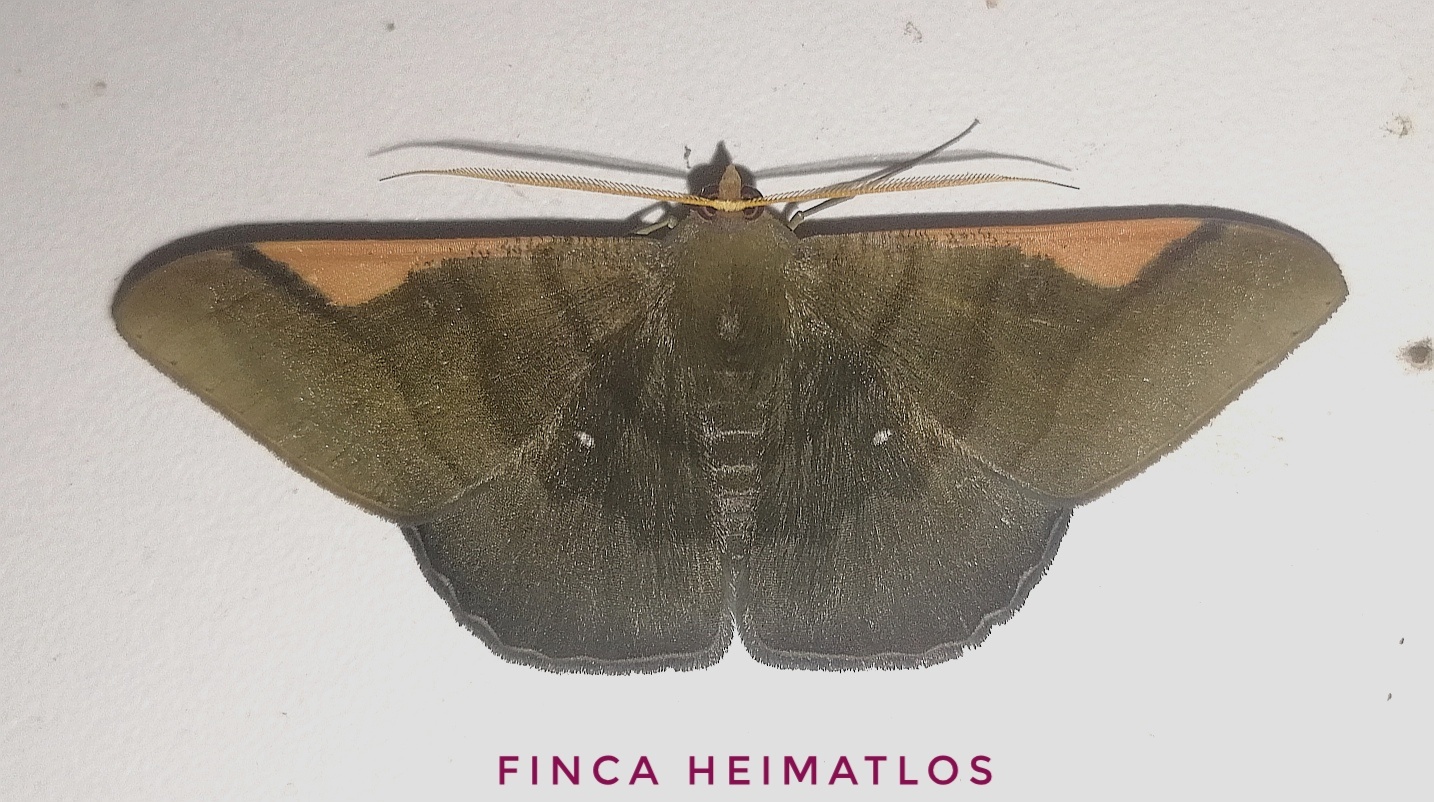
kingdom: Animalia
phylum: Arthropoda
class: Insecta
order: Lepidoptera
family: Geometridae
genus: Sphacelodes
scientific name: Sphacelodes vulneraria
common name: Looper moth
